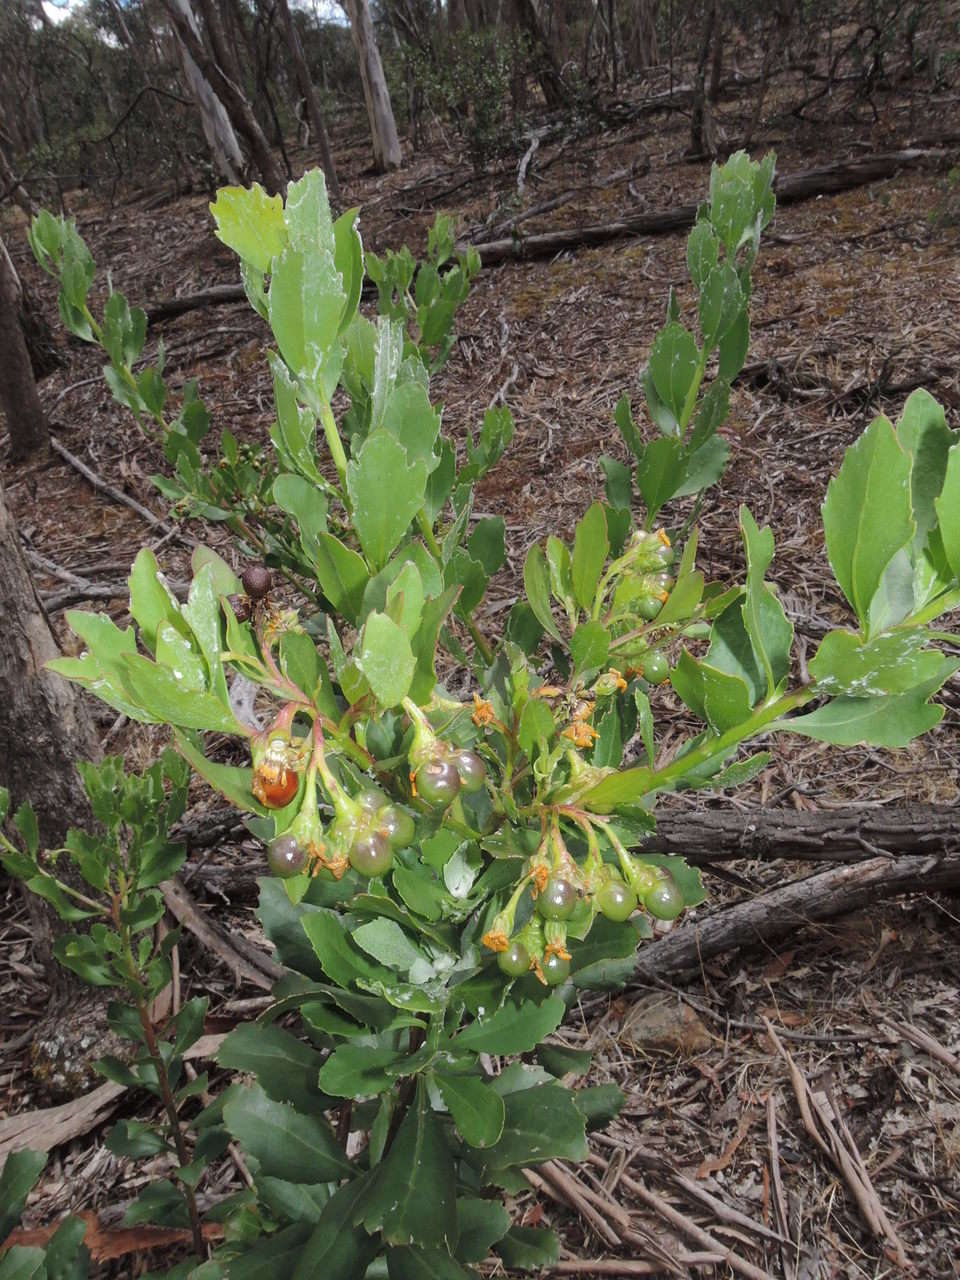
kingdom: Plantae
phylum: Tracheophyta
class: Magnoliopsida
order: Asterales
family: Asteraceae
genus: Osteospermum
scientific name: Osteospermum moniliferum
